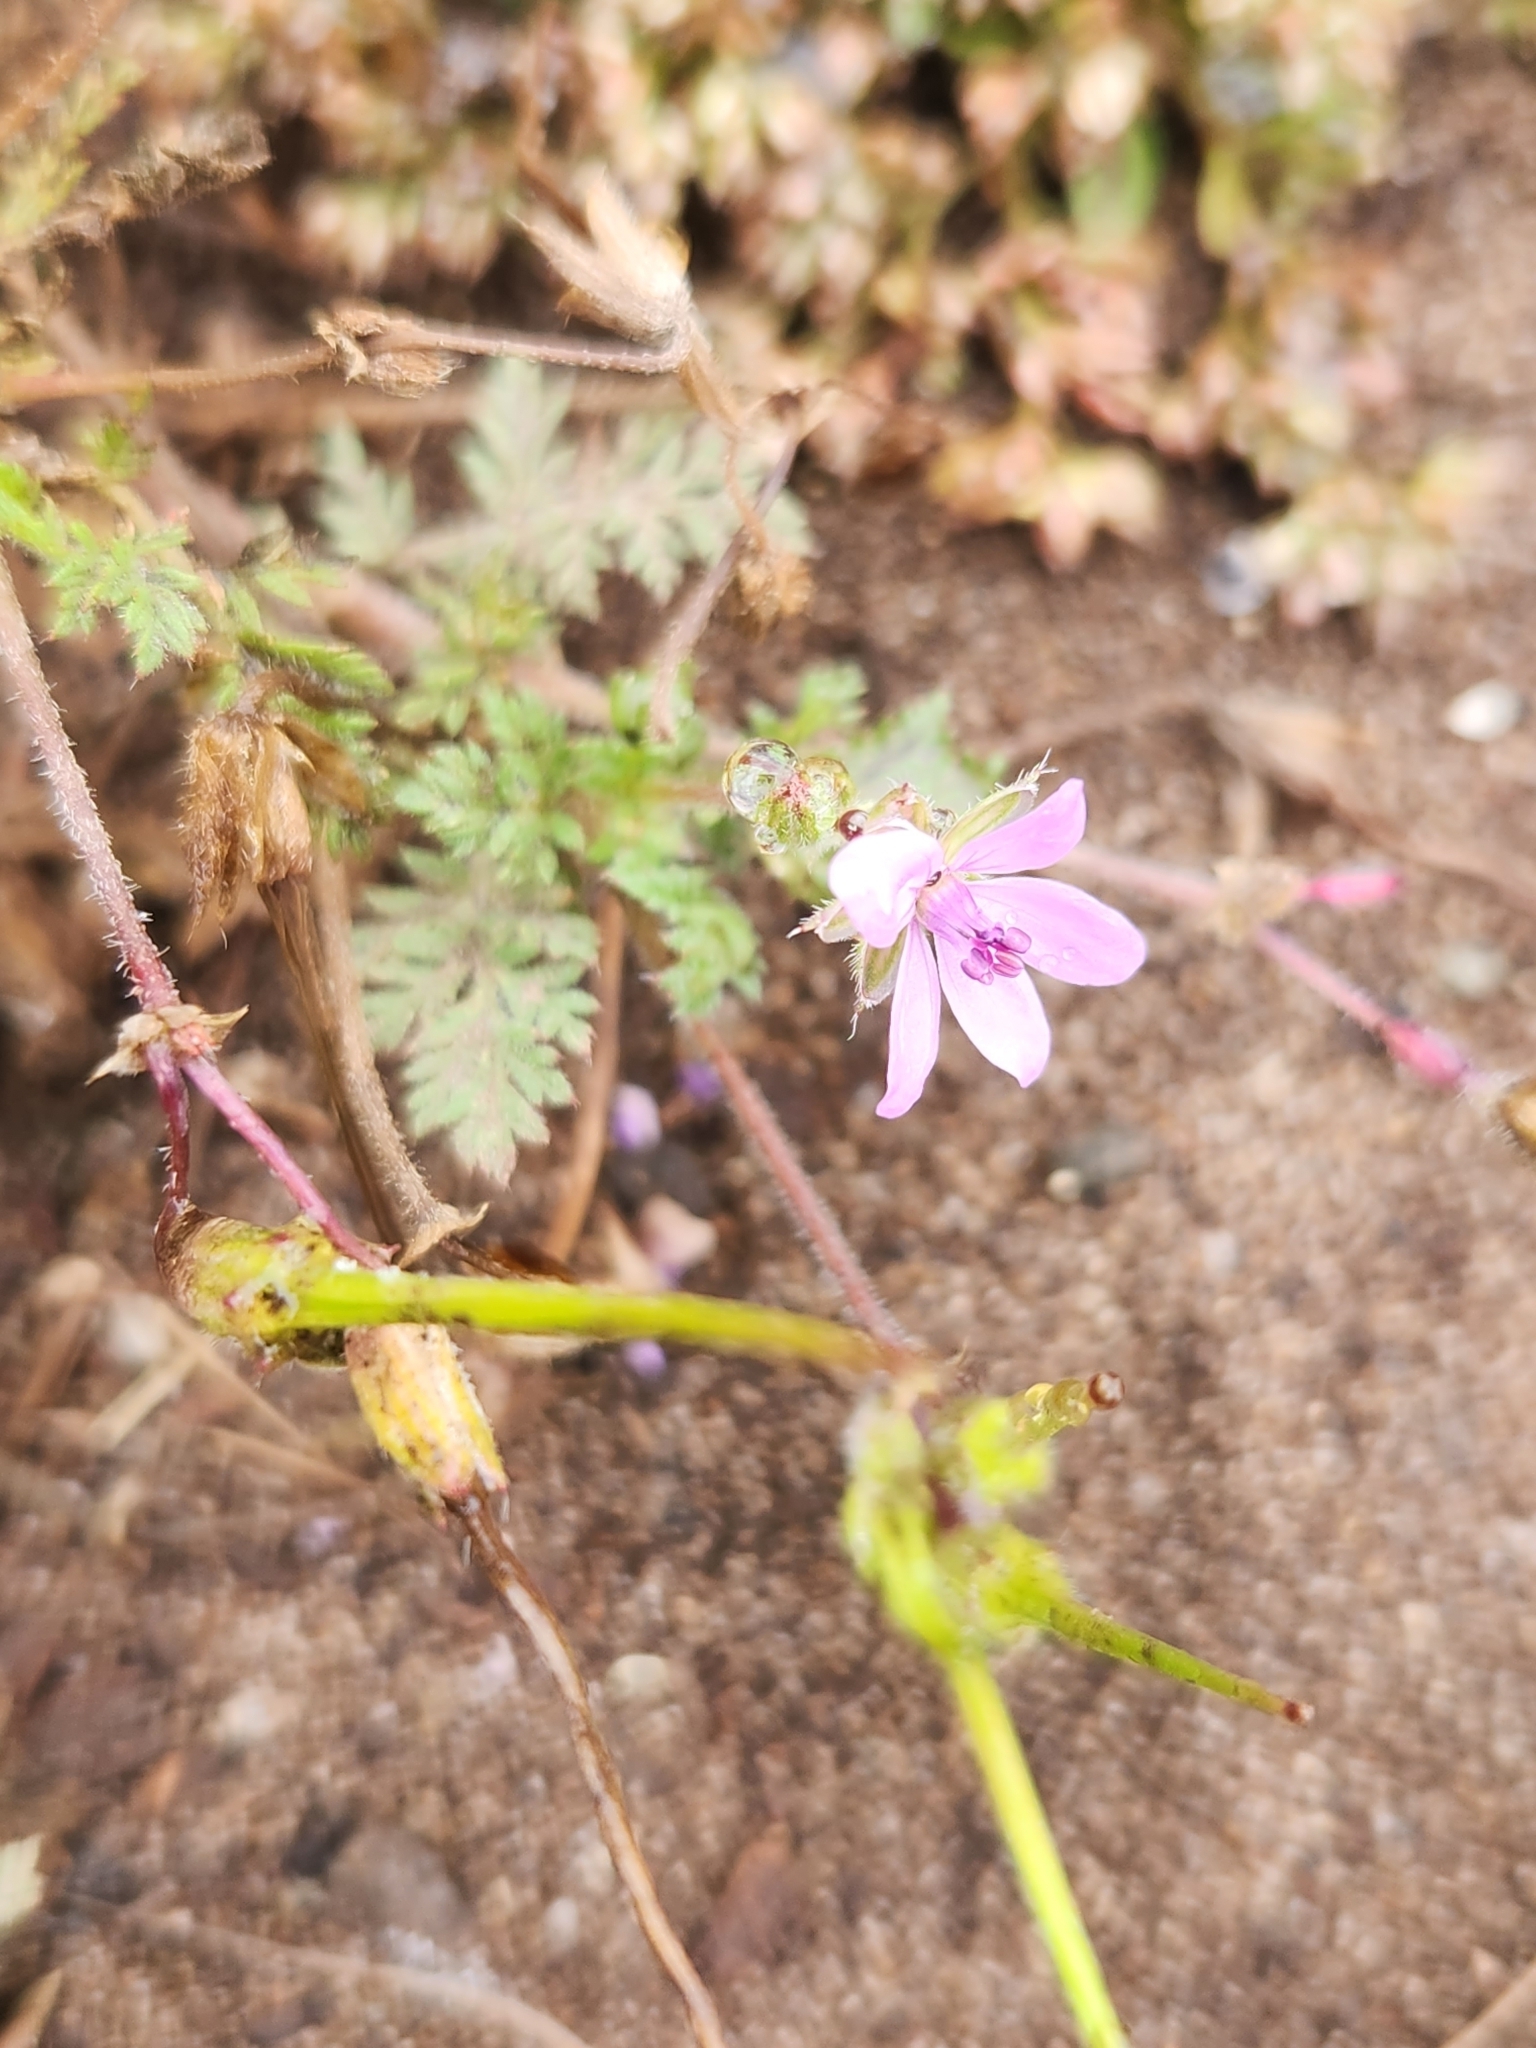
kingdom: Plantae
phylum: Tracheophyta
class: Magnoliopsida
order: Geraniales
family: Geraniaceae
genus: Erodium
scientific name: Erodium cicutarium
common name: Common stork's-bill
